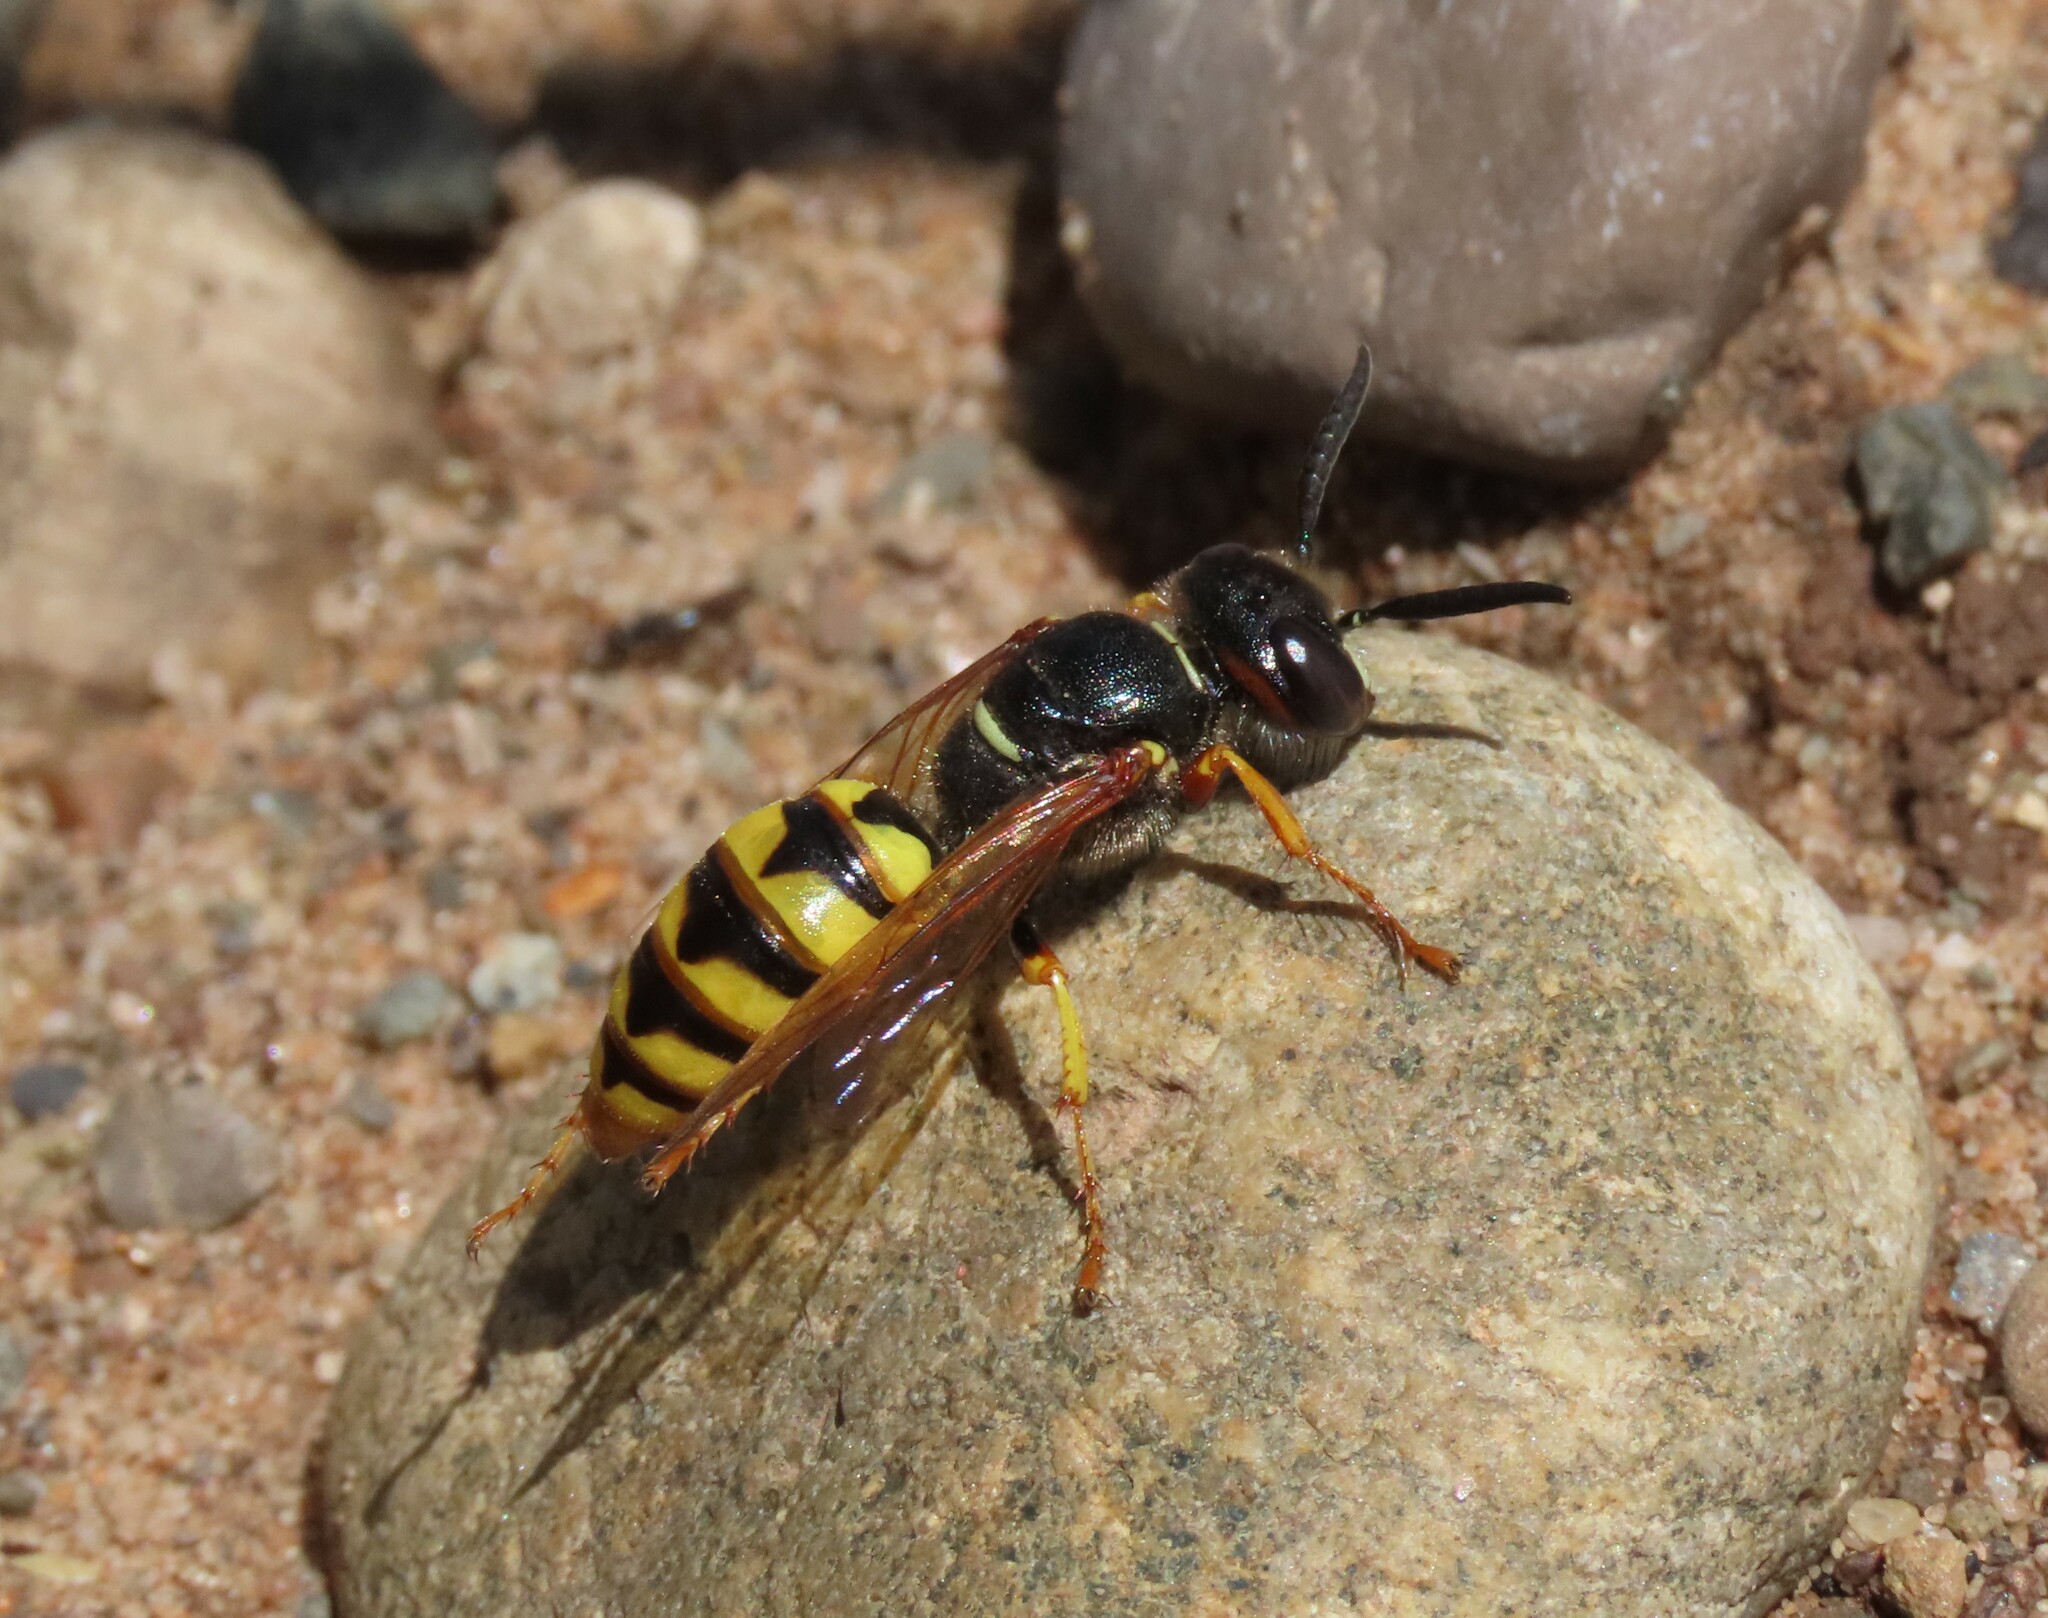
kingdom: Animalia
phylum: Arthropoda
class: Insecta
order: Hymenoptera
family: Crabronidae
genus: Philanthus
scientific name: Philanthus triangulum
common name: Bee wolf
